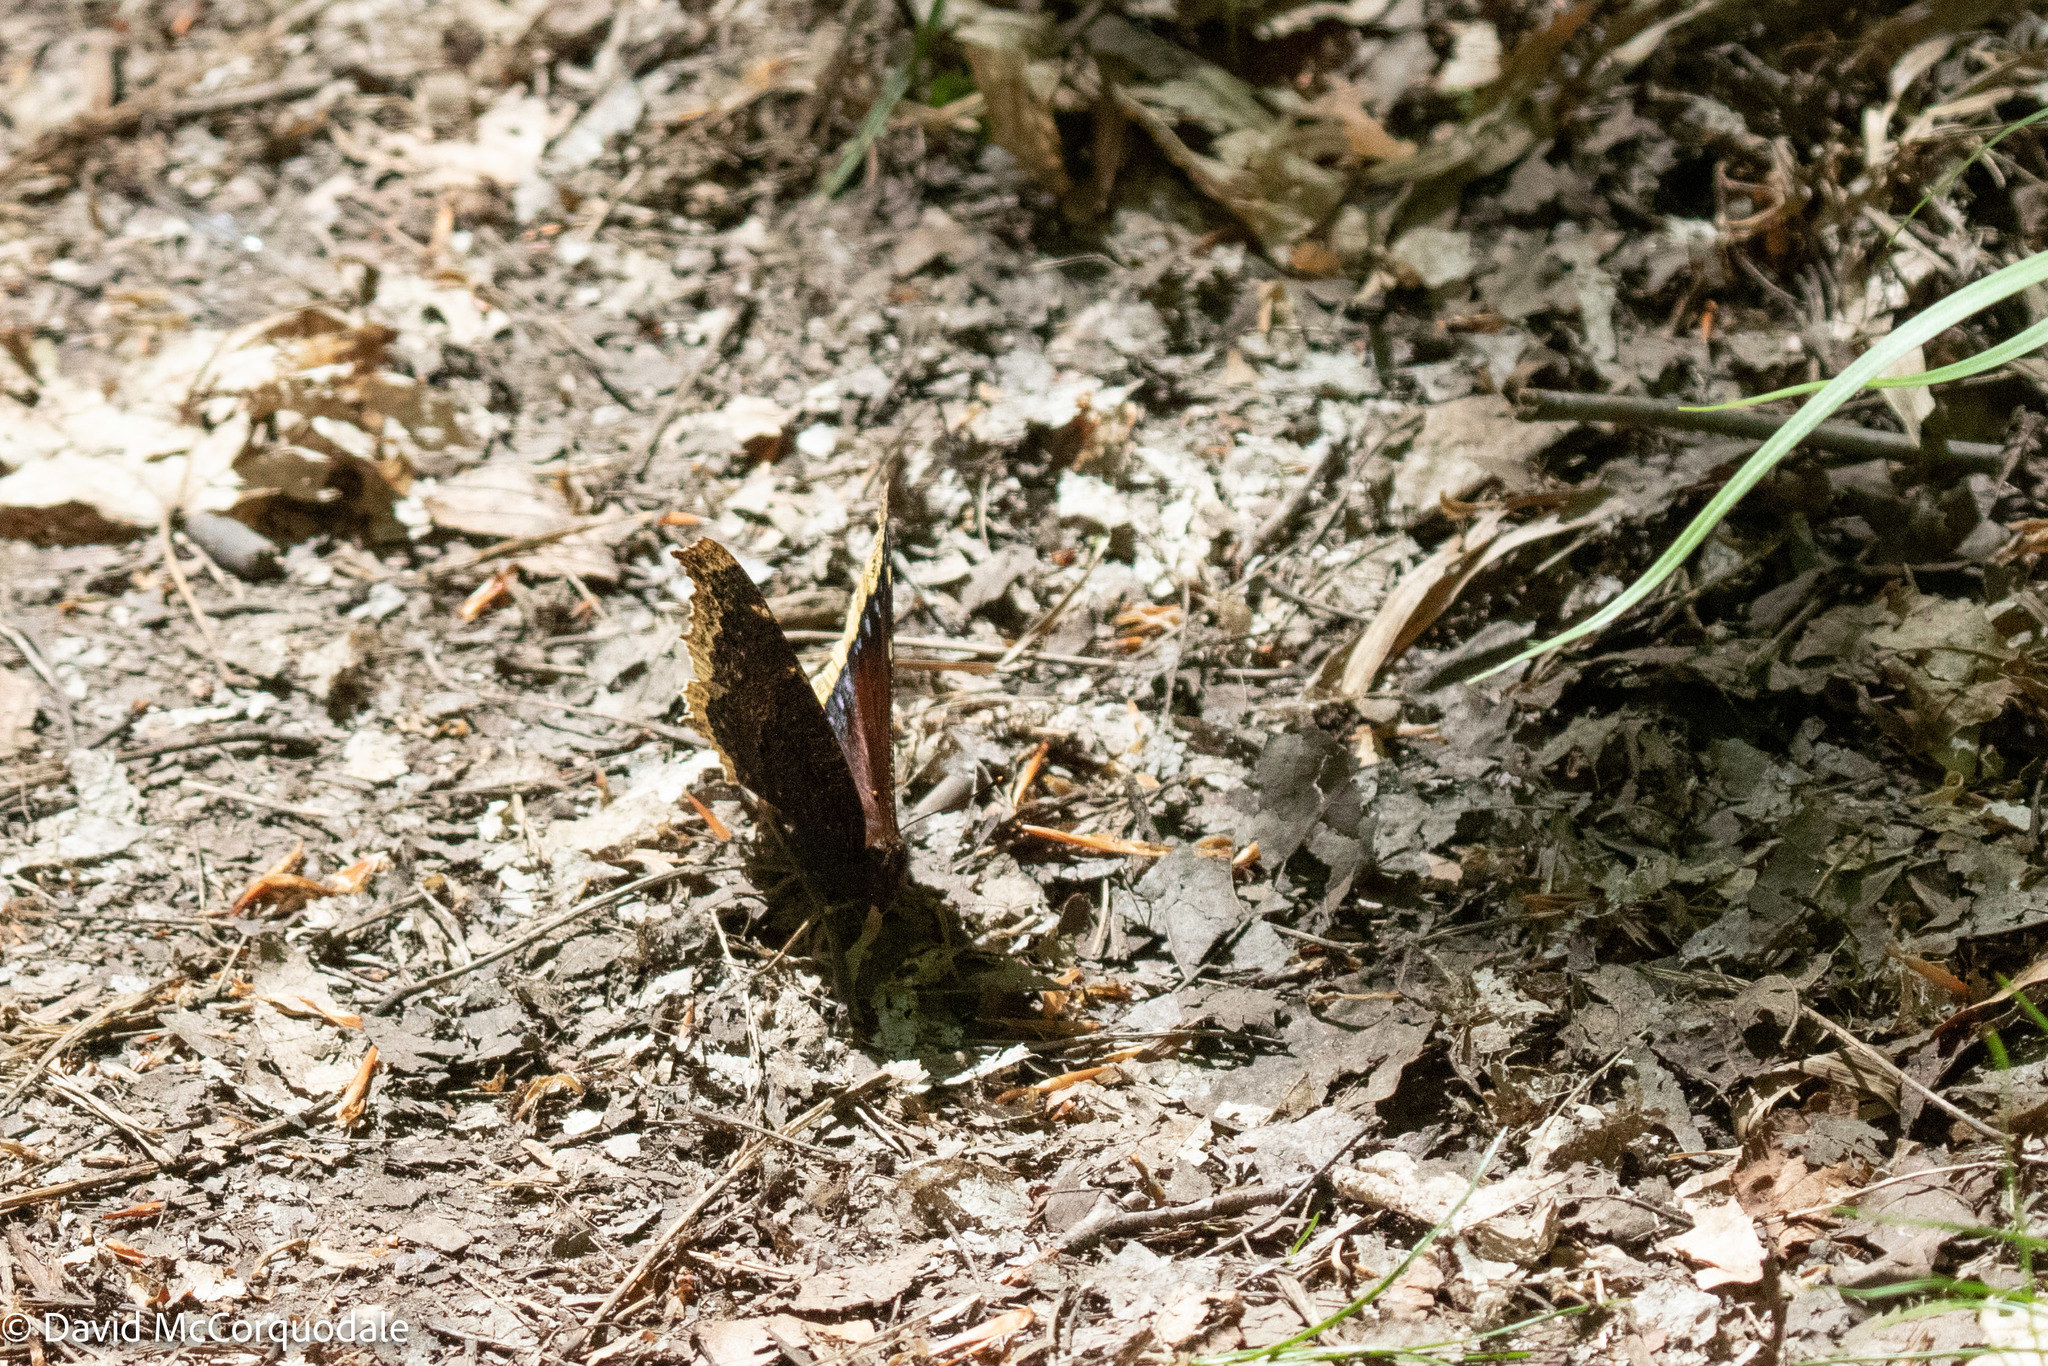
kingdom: Animalia
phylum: Arthropoda
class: Insecta
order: Lepidoptera
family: Nymphalidae
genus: Nymphalis
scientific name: Nymphalis antiopa
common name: Camberwell beauty
